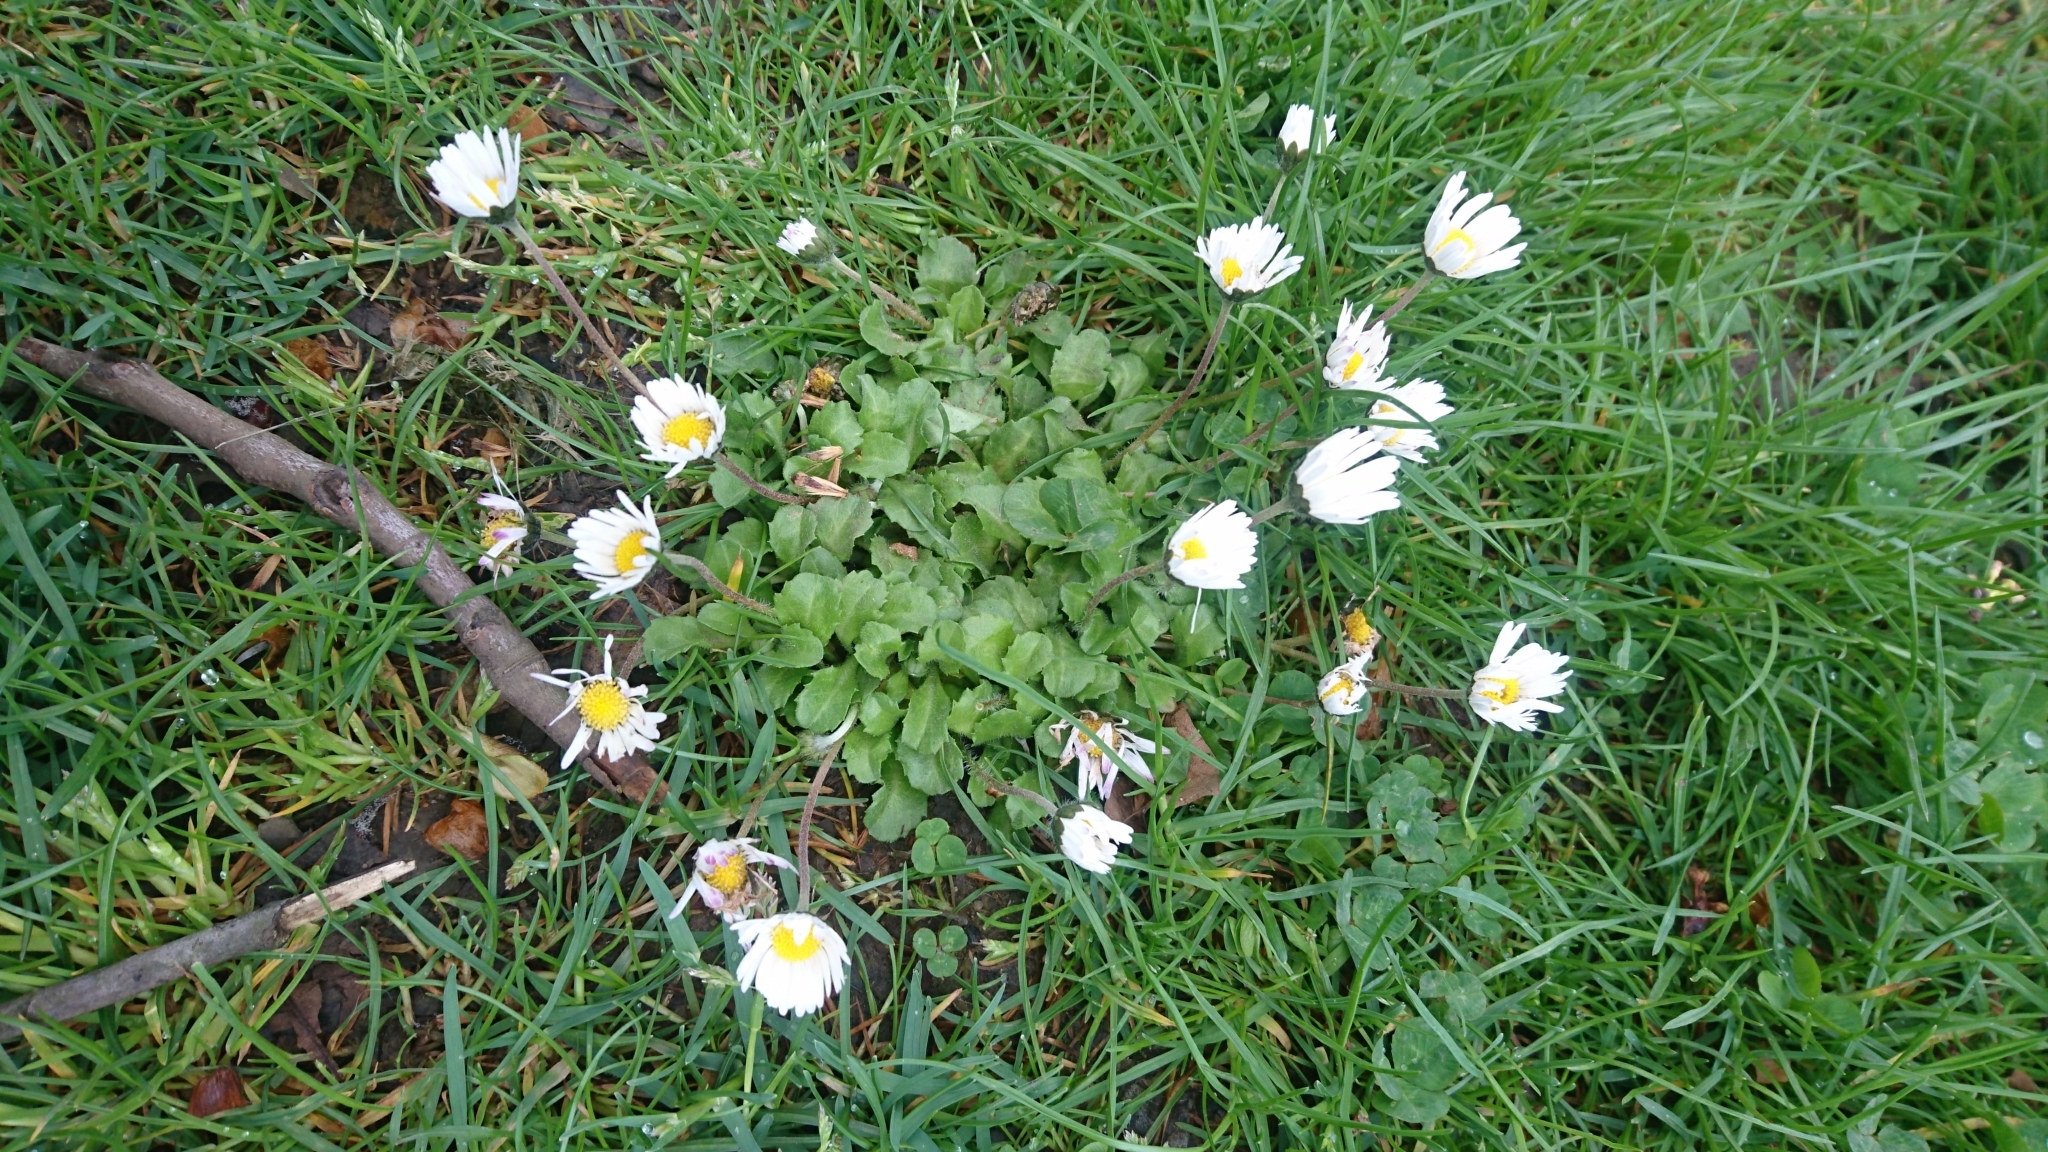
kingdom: Plantae
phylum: Tracheophyta
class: Magnoliopsida
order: Asterales
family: Asteraceae
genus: Bellis
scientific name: Bellis perennis
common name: Lawndaisy
